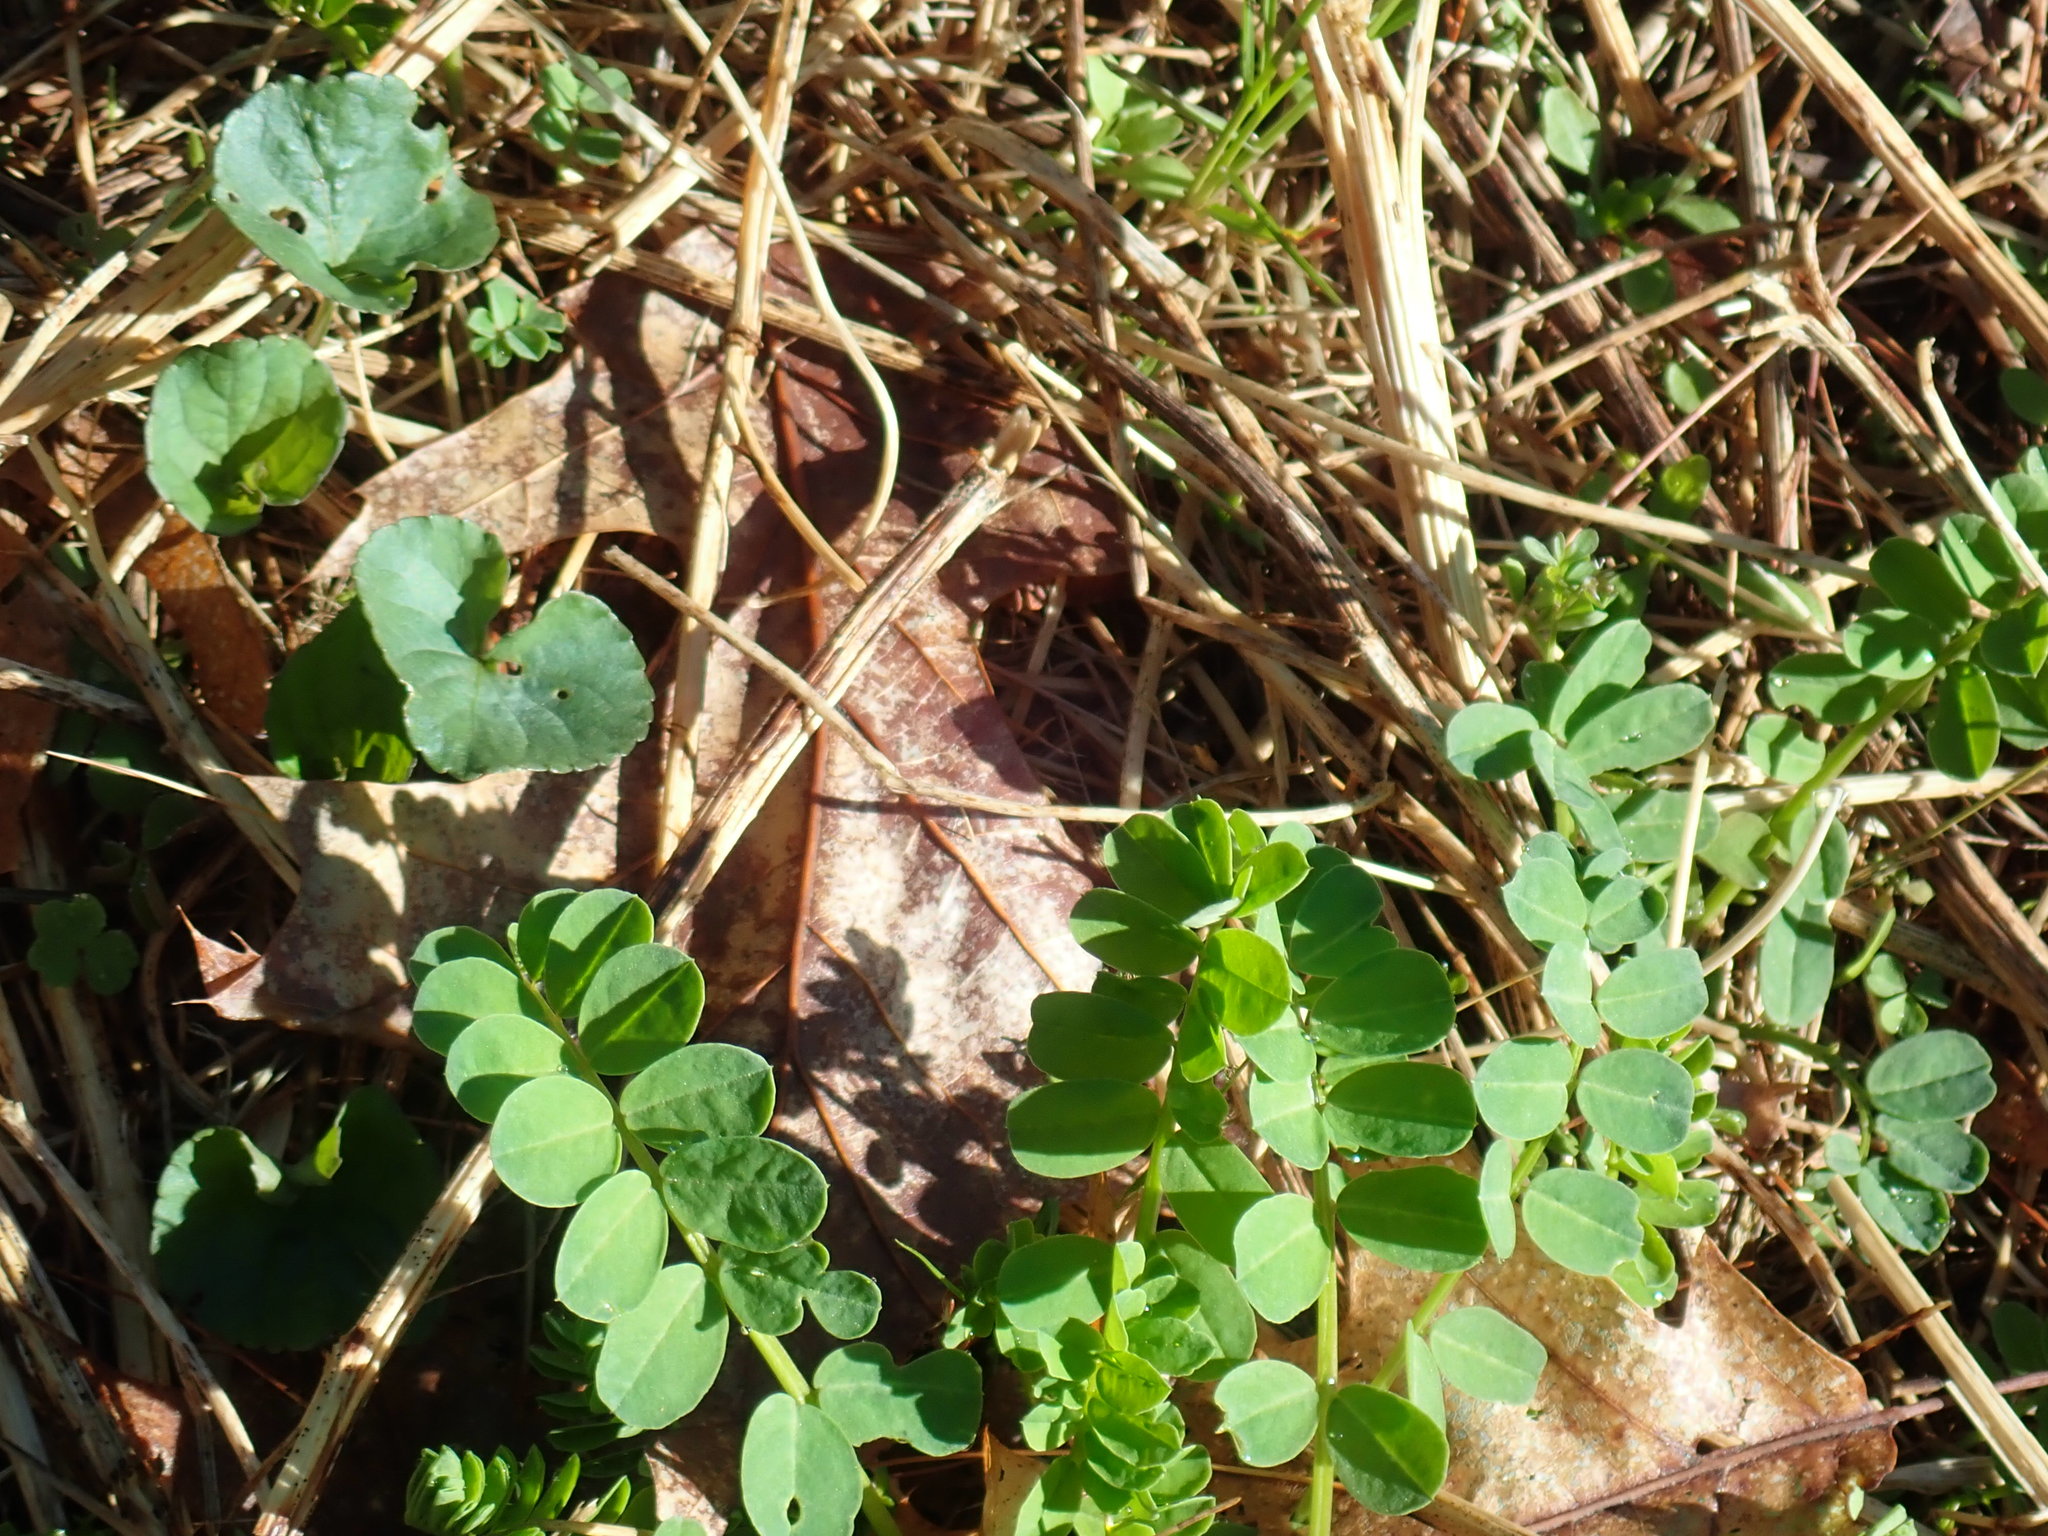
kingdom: Plantae
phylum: Tracheophyta
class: Magnoliopsida
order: Fabales
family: Fabaceae
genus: Coronilla
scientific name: Coronilla varia
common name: Crownvetch
